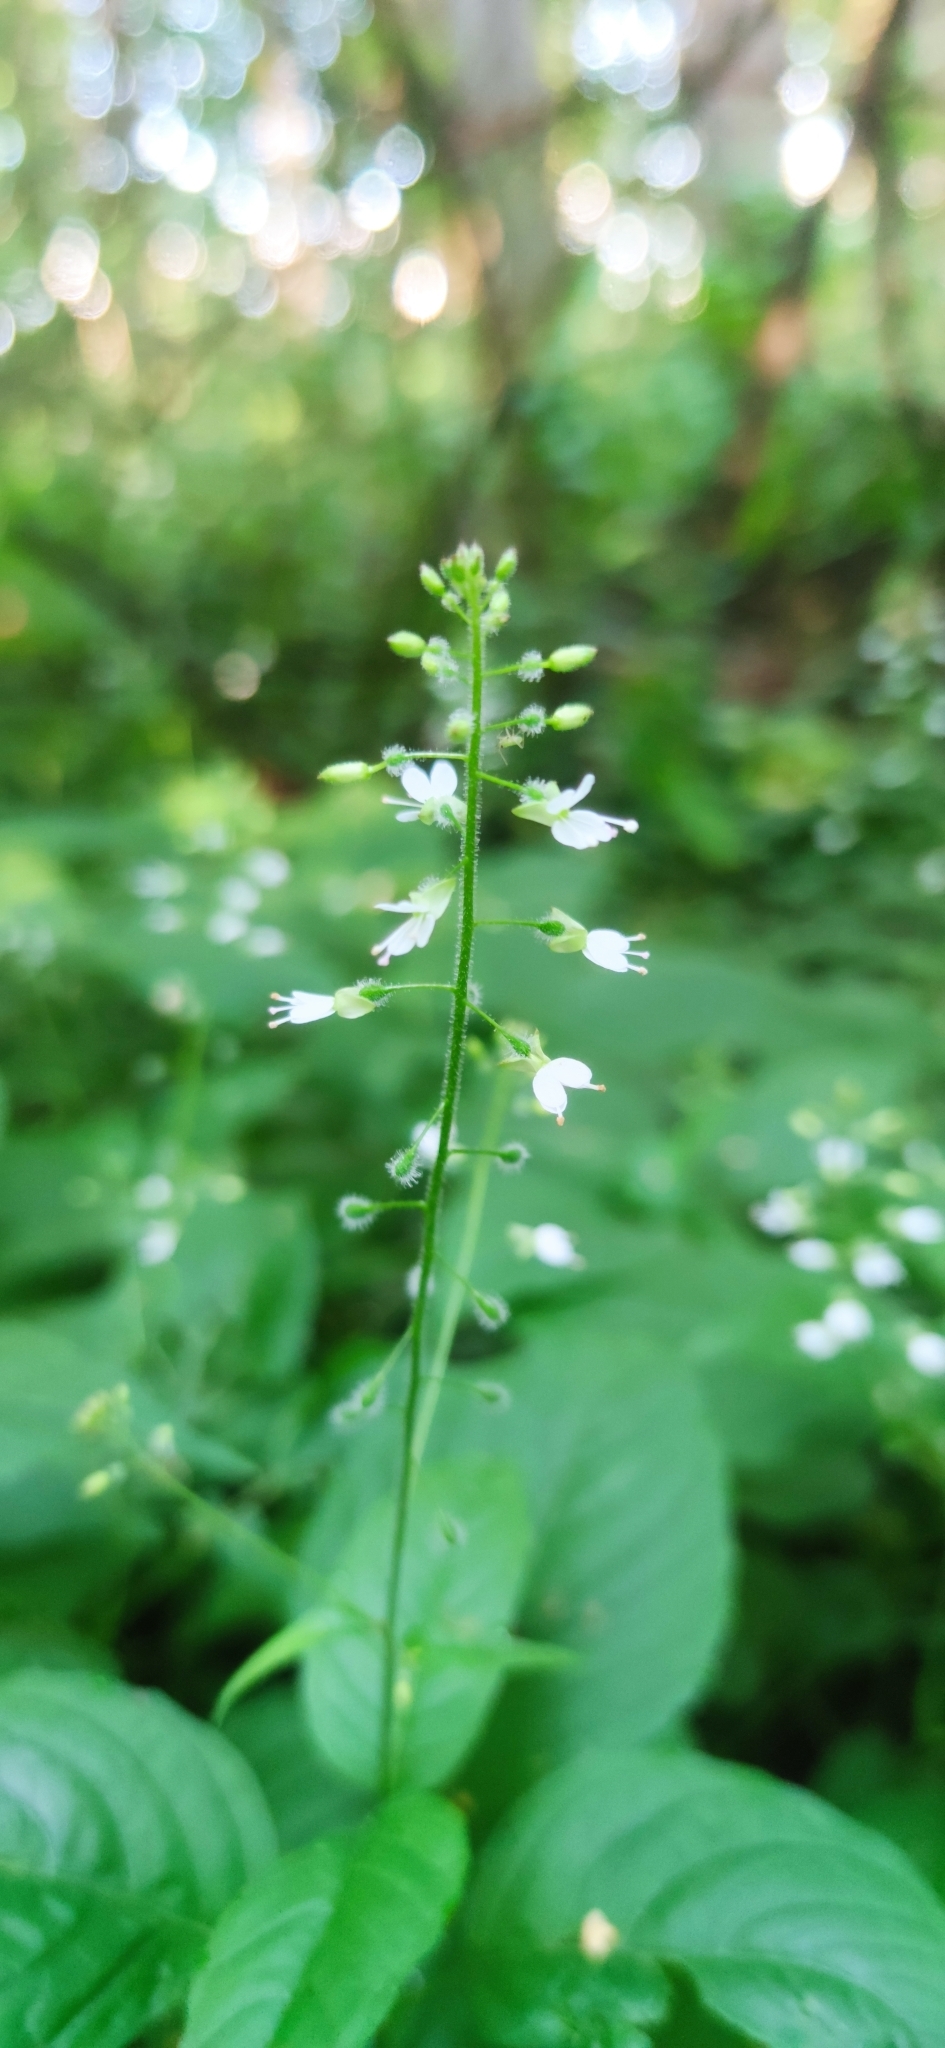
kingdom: Plantae
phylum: Tracheophyta
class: Magnoliopsida
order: Myrtales
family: Onagraceae
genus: Circaea
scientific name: Circaea lutetiana
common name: Enchanter's-nightshade
